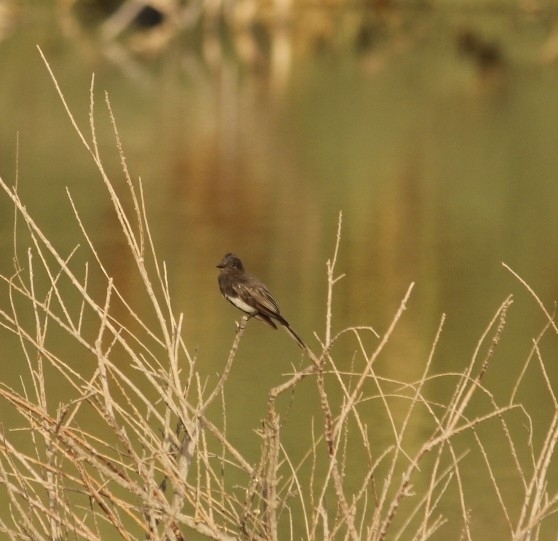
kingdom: Animalia
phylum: Chordata
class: Aves
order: Passeriformes
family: Tyrannidae
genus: Sayornis
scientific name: Sayornis nigricans
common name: Black phoebe
